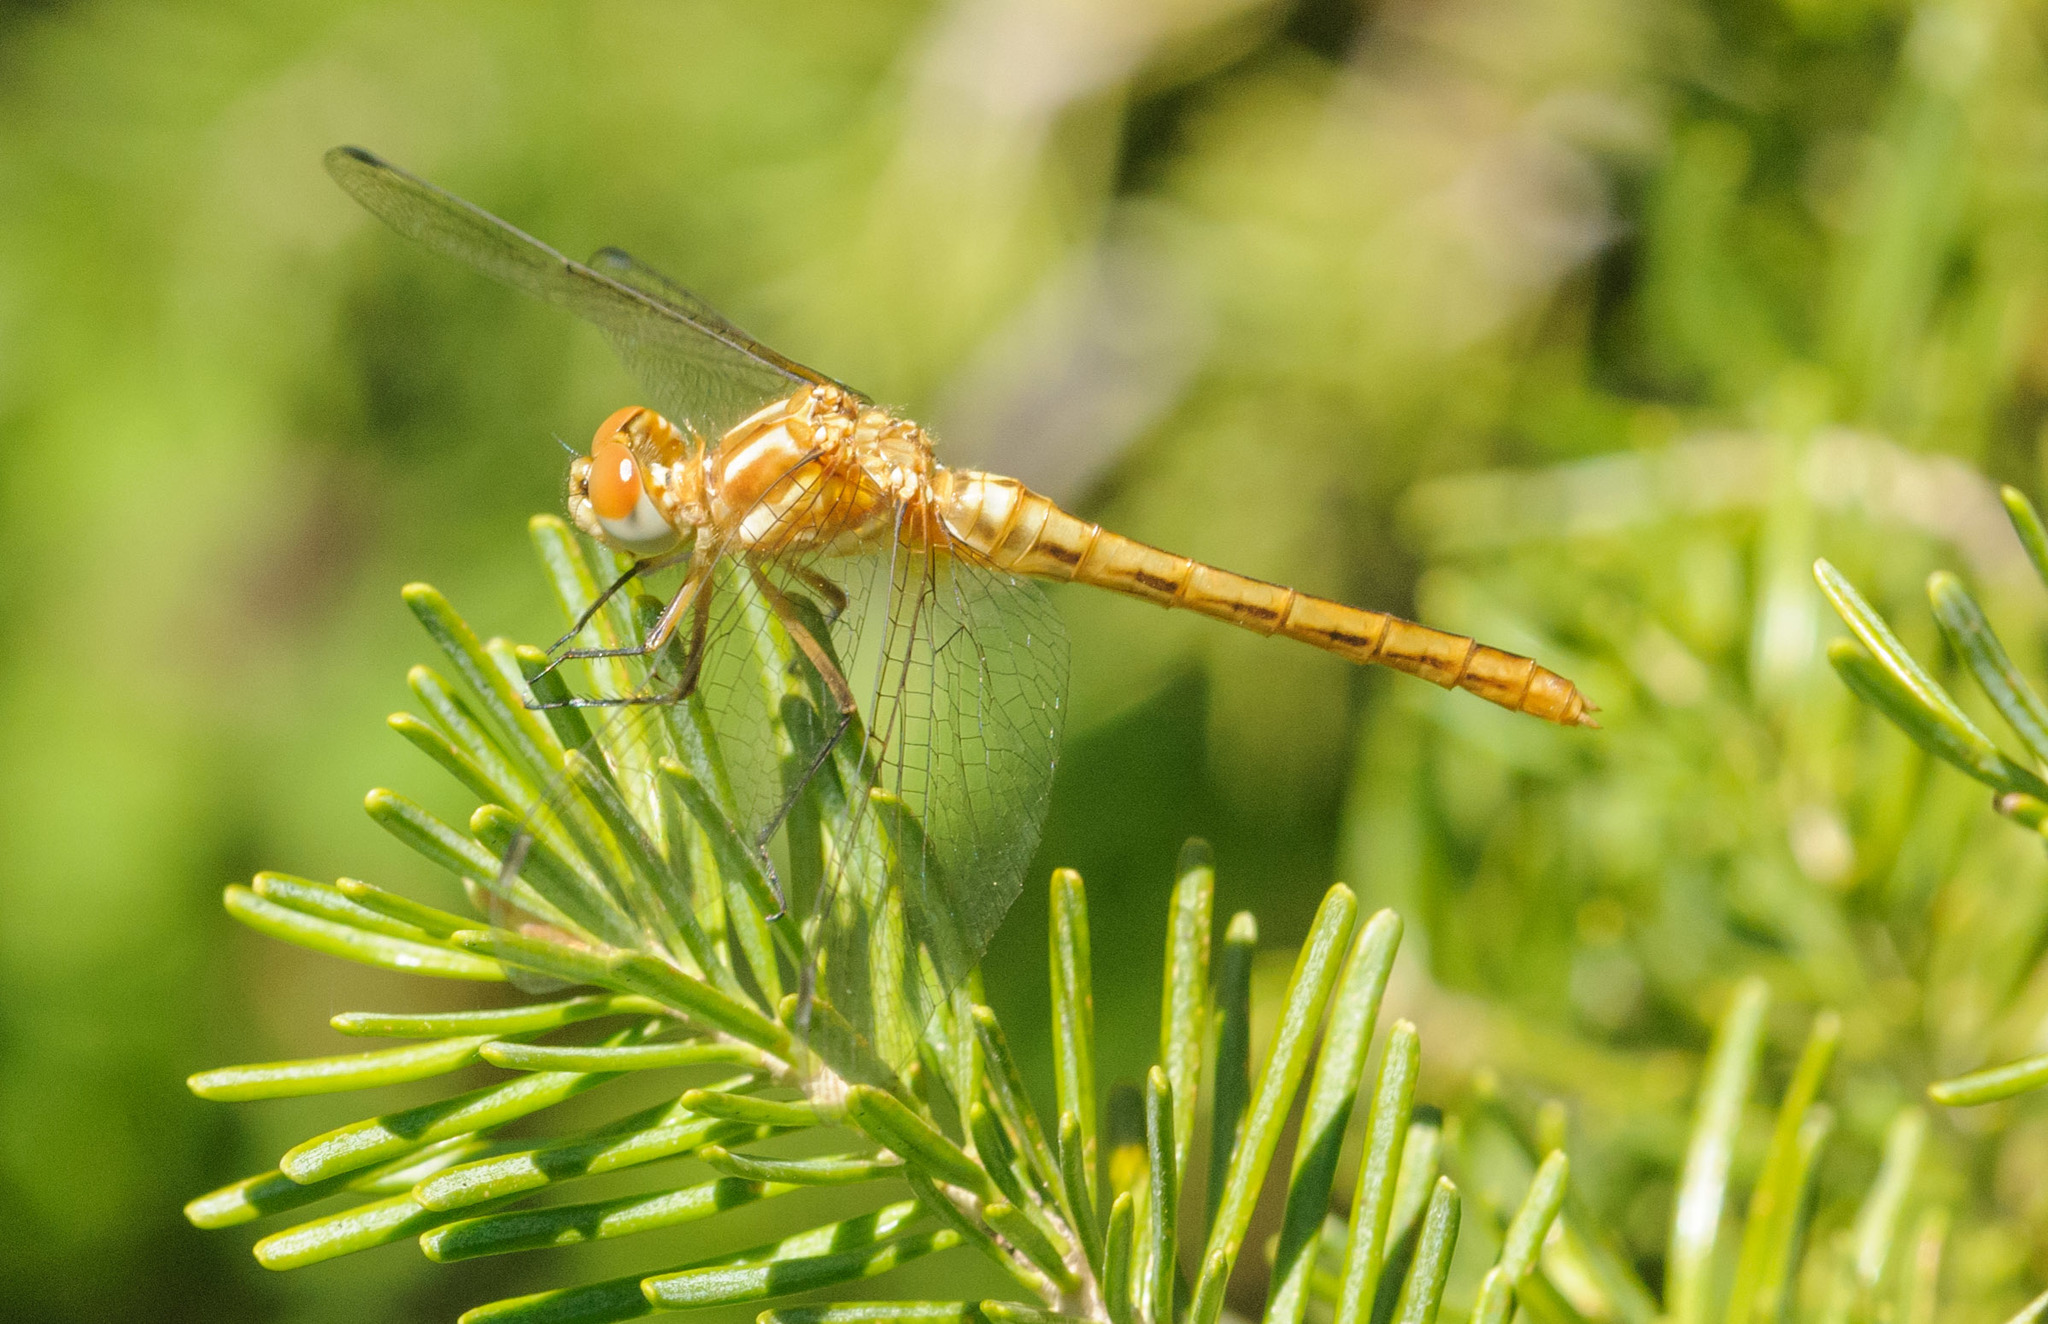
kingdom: Animalia
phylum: Arthropoda
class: Insecta
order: Odonata
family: Libellulidae
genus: Sympetrum
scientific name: Sympetrum pallipes
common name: Striped meadowhawk
